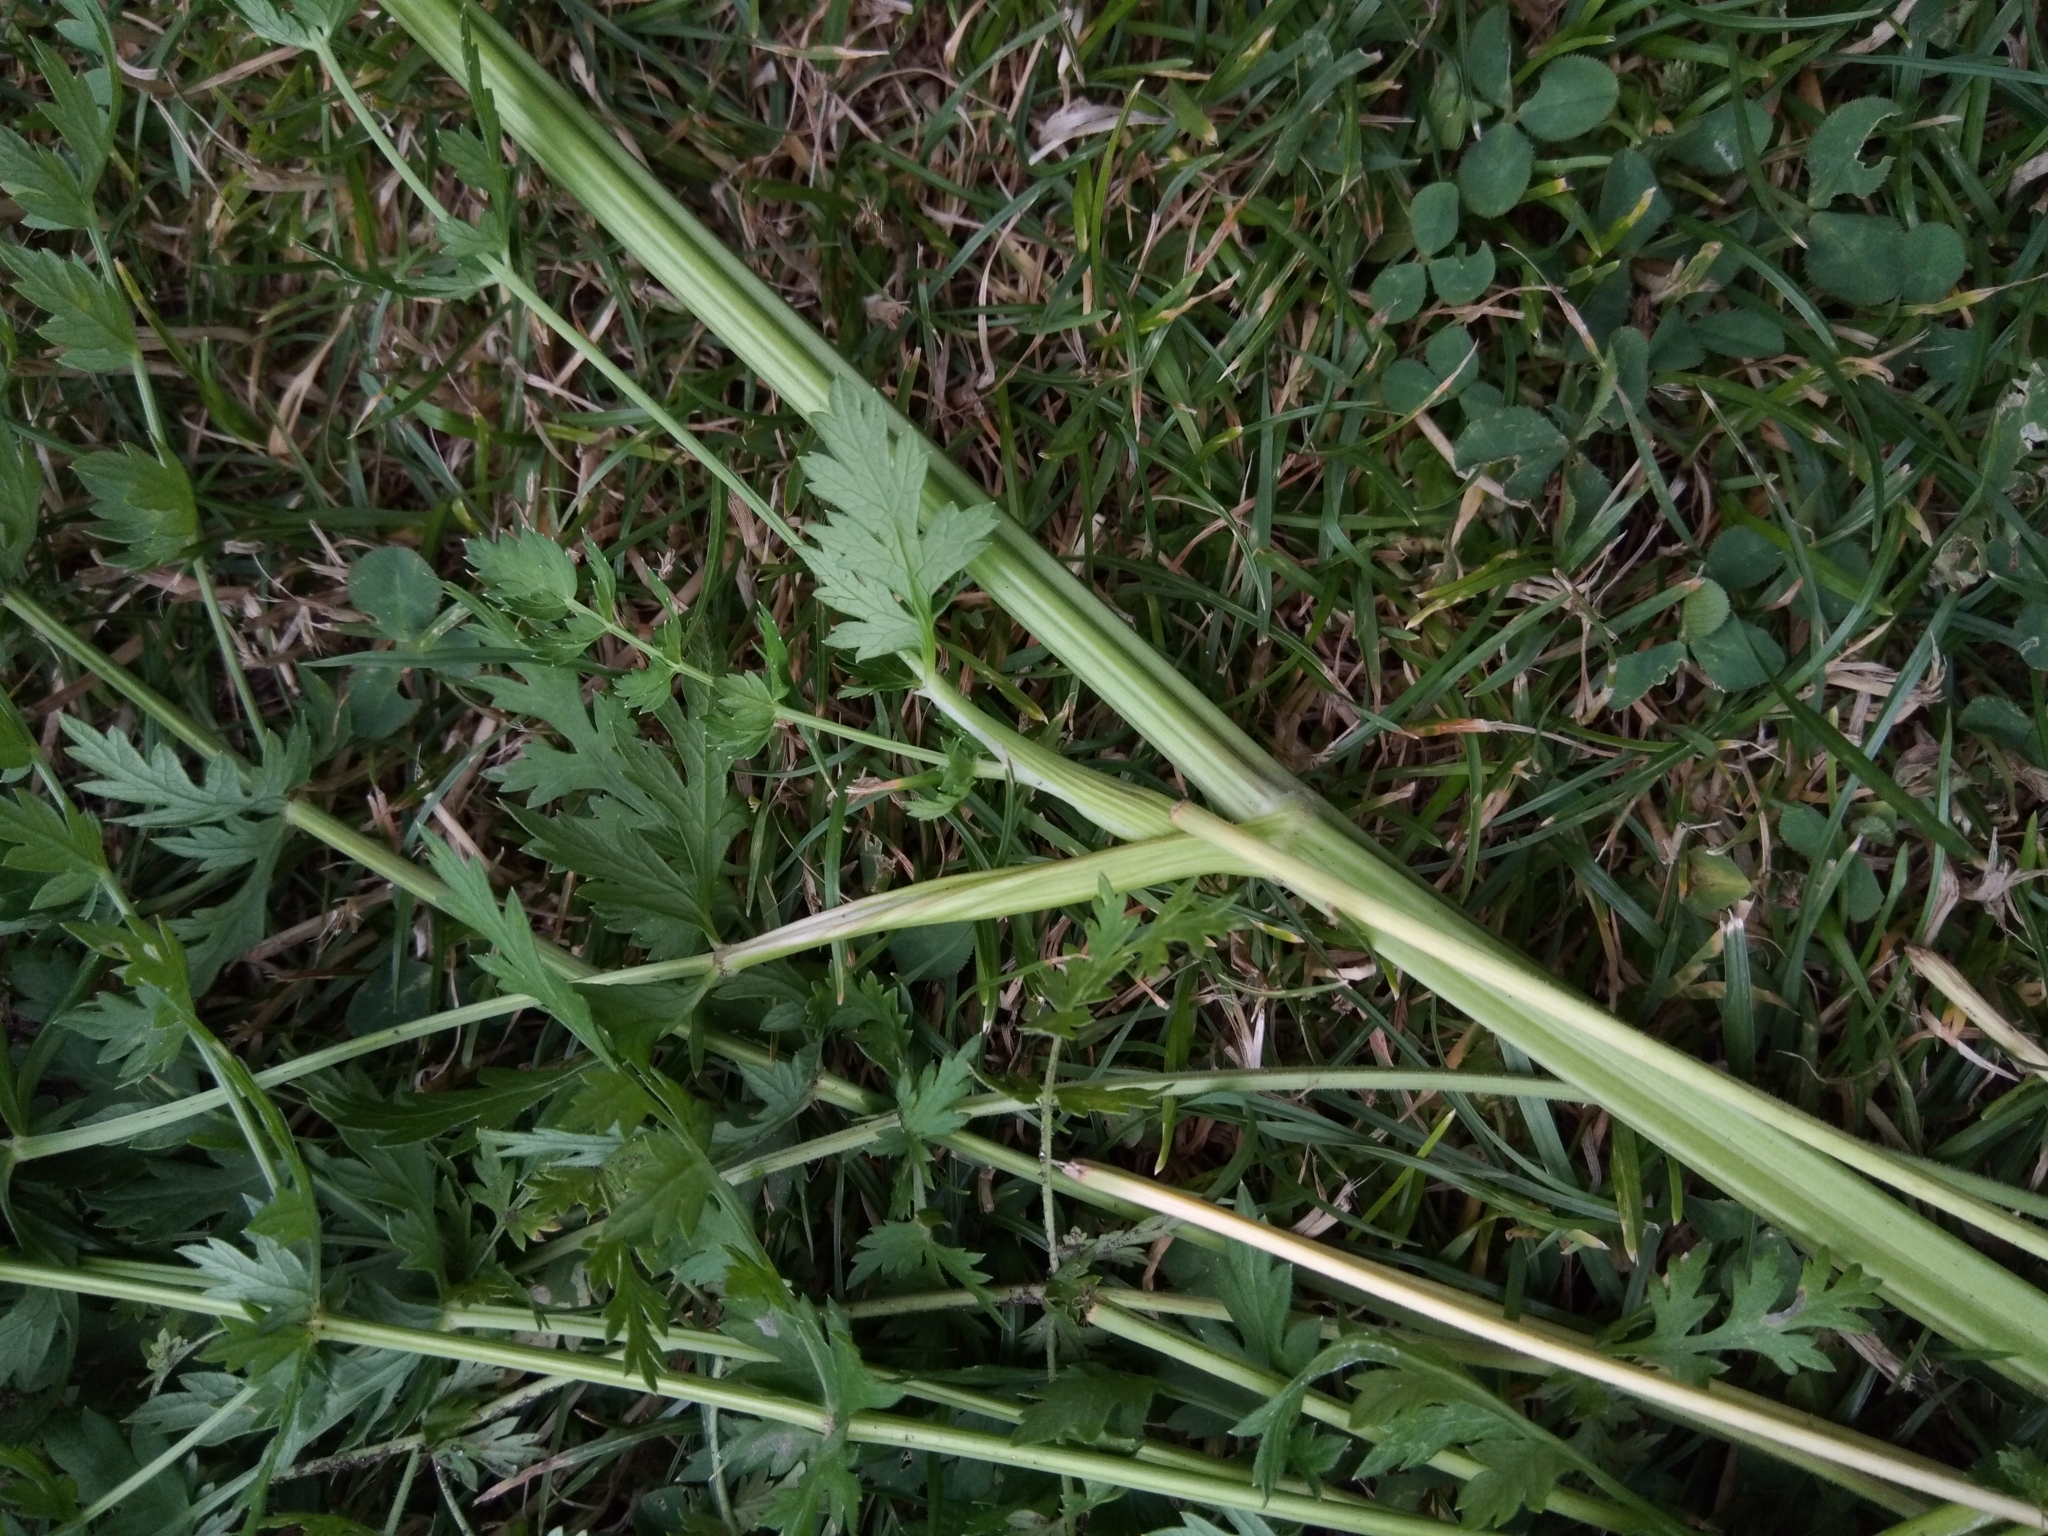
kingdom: Plantae
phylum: Tracheophyta
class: Magnoliopsida
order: Apiales
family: Apiaceae
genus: Daucus
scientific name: Daucus carota
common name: Wild carrot
